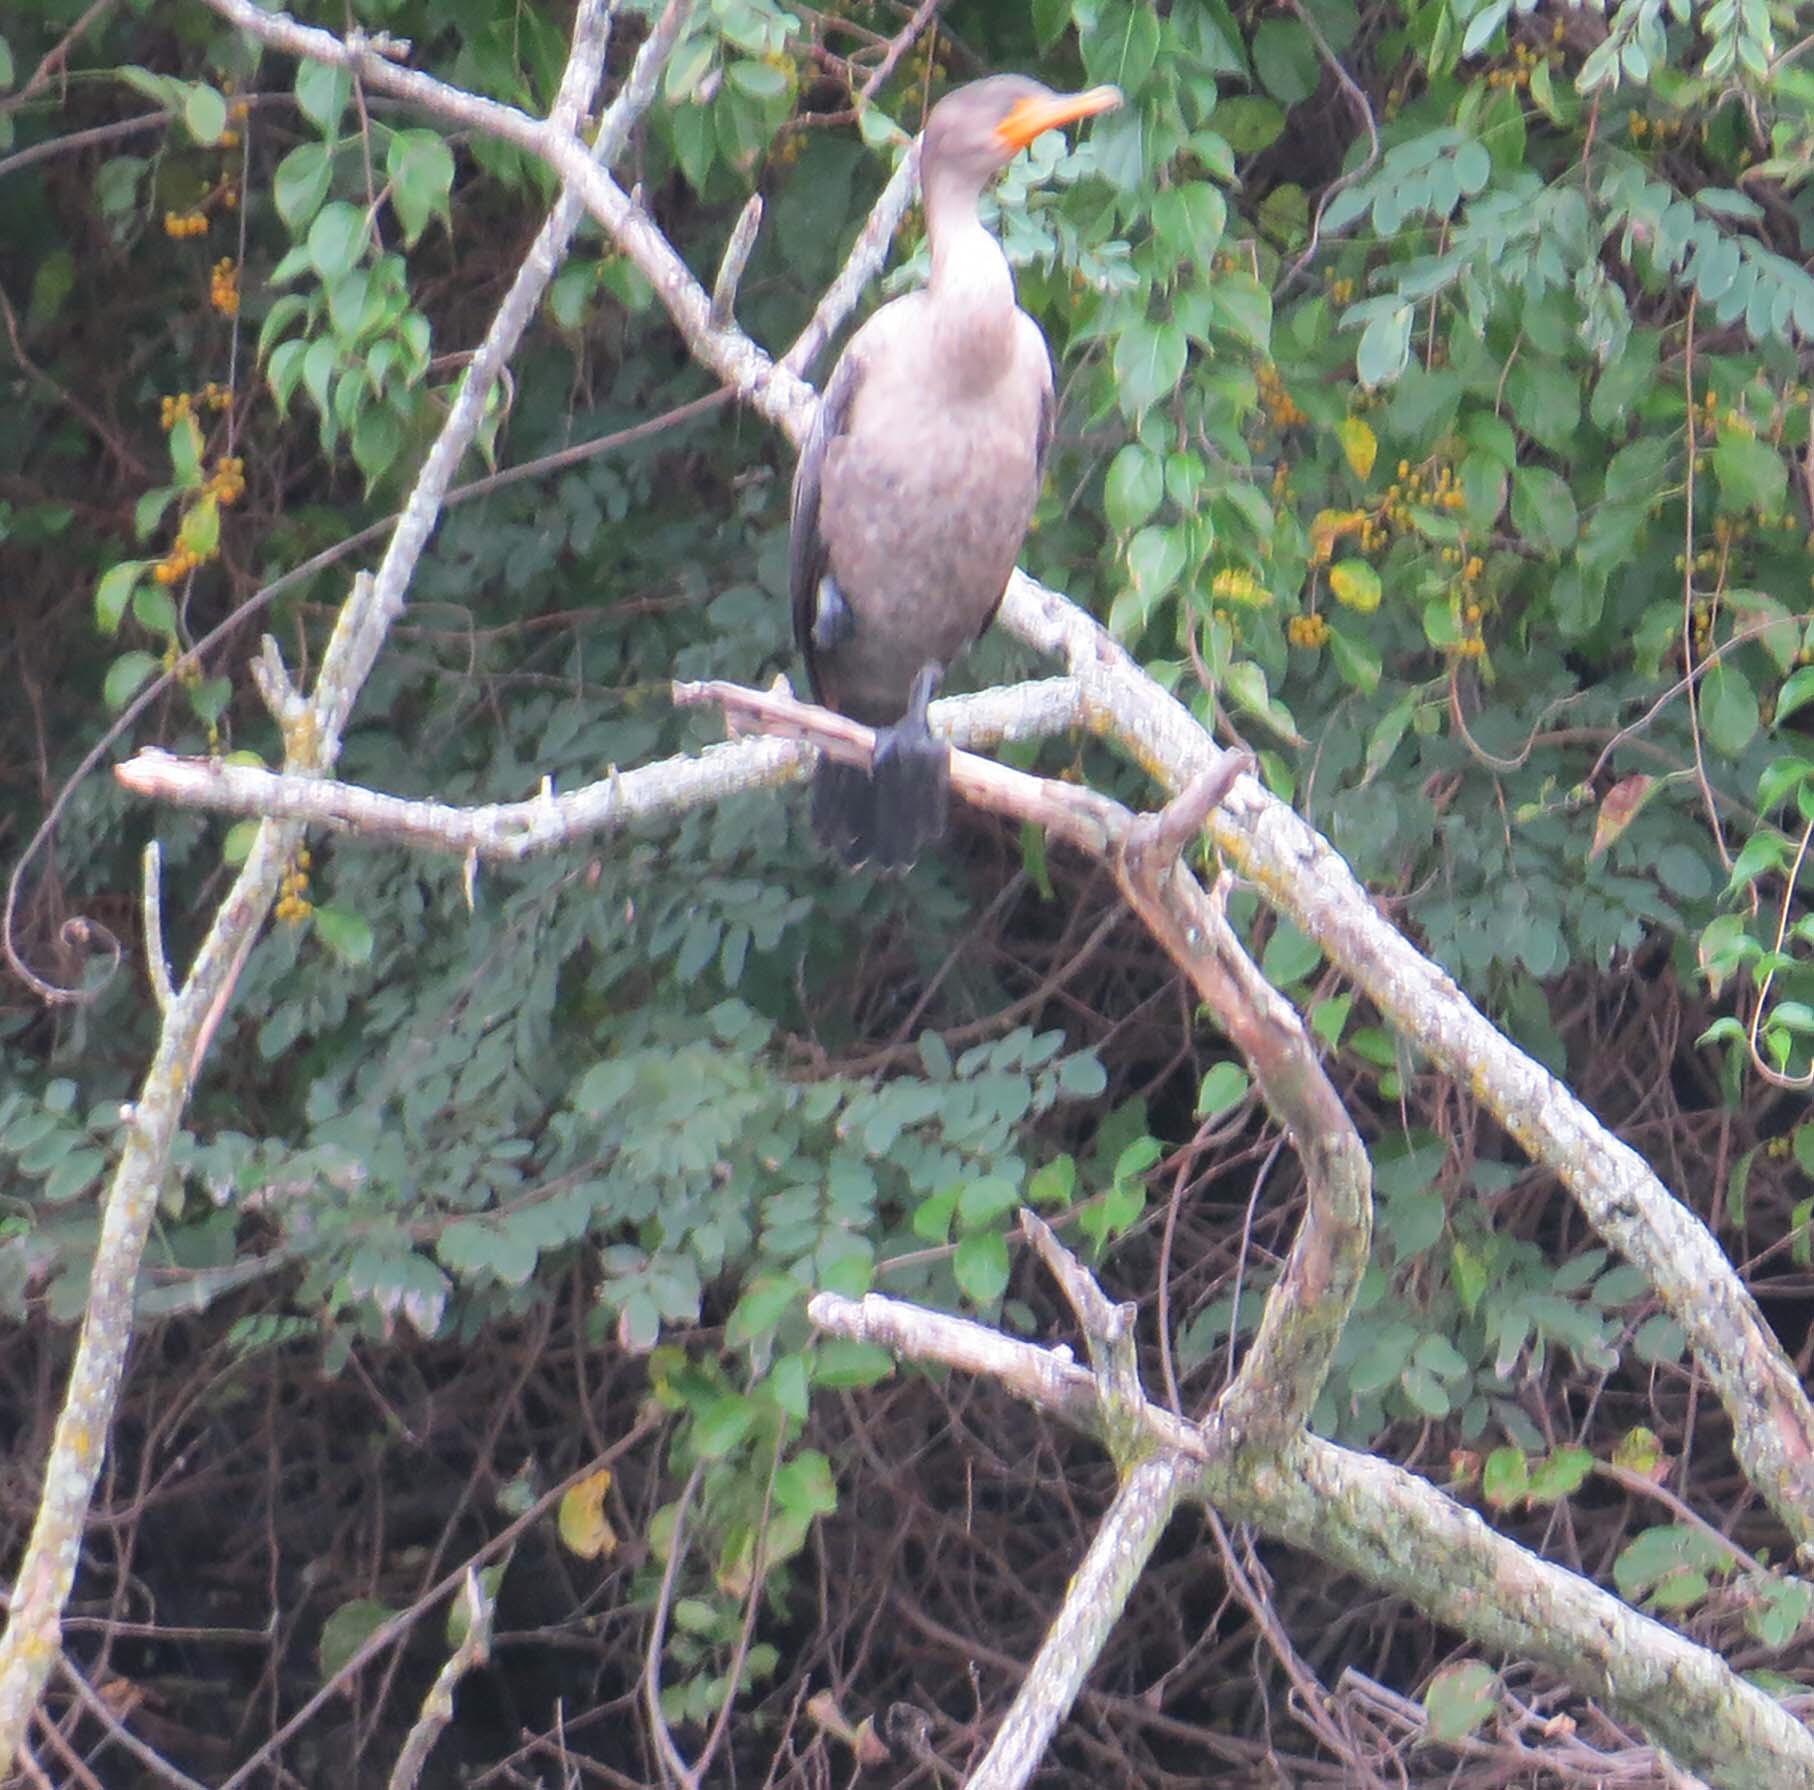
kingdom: Animalia
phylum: Chordata
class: Aves
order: Suliformes
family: Phalacrocoracidae
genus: Phalacrocorax
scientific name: Phalacrocorax auritus
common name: Double-crested cormorant
